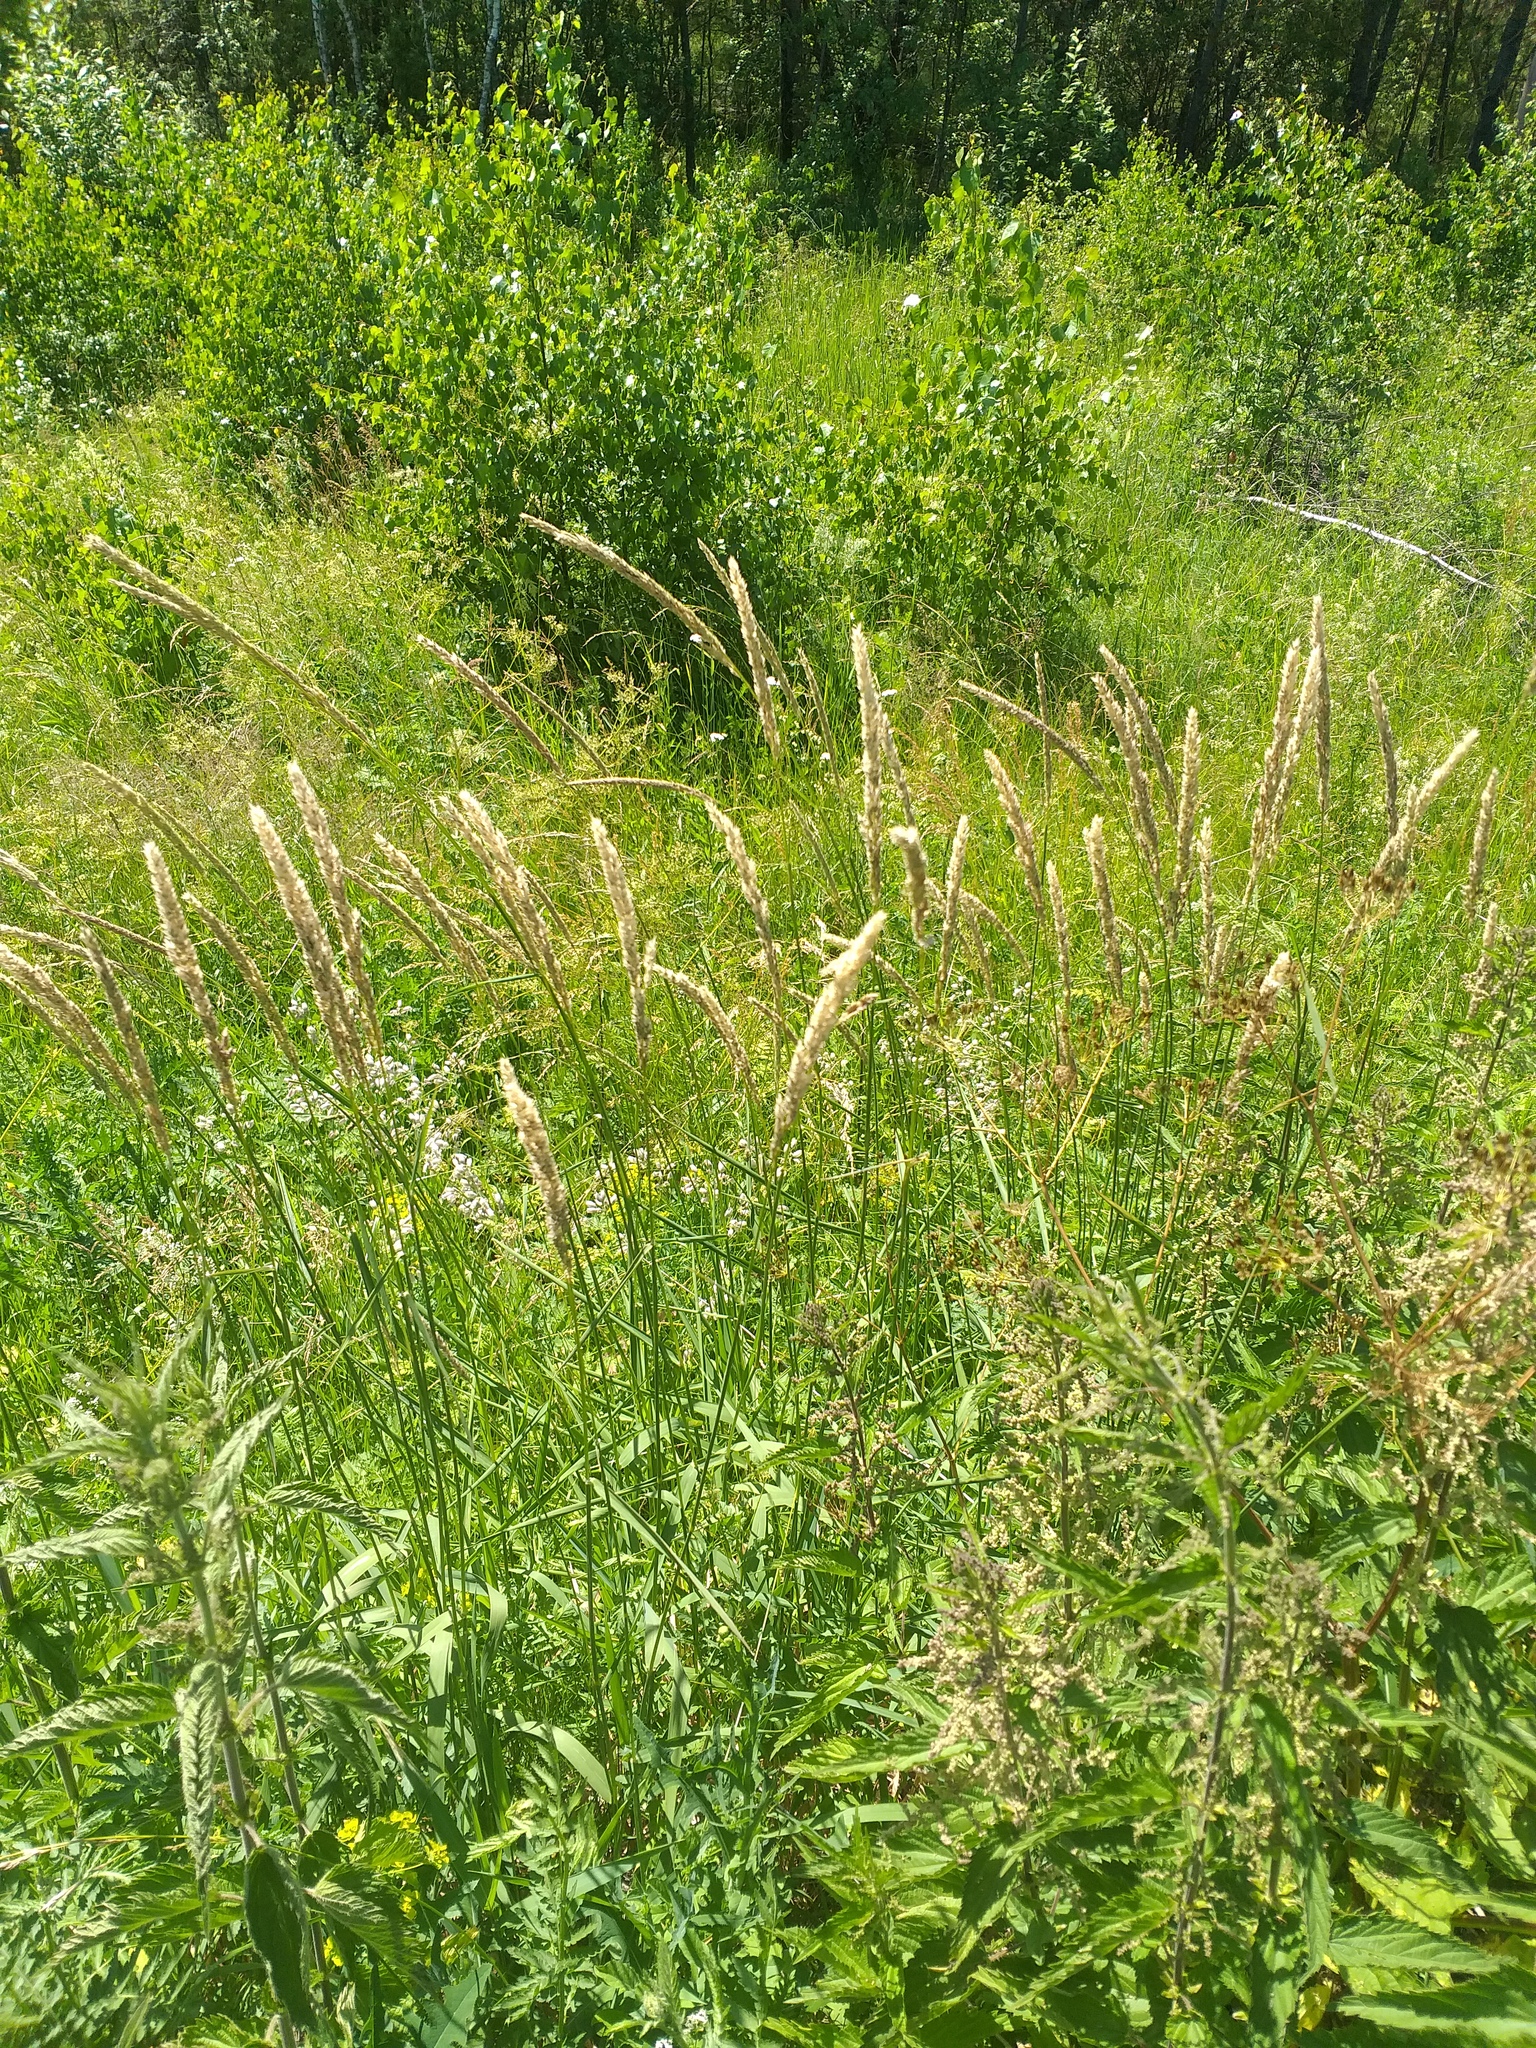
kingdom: Plantae
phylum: Tracheophyta
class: Liliopsida
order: Poales
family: Poaceae
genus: Phalaris
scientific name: Phalaris arundinacea
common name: Reed canary-grass
